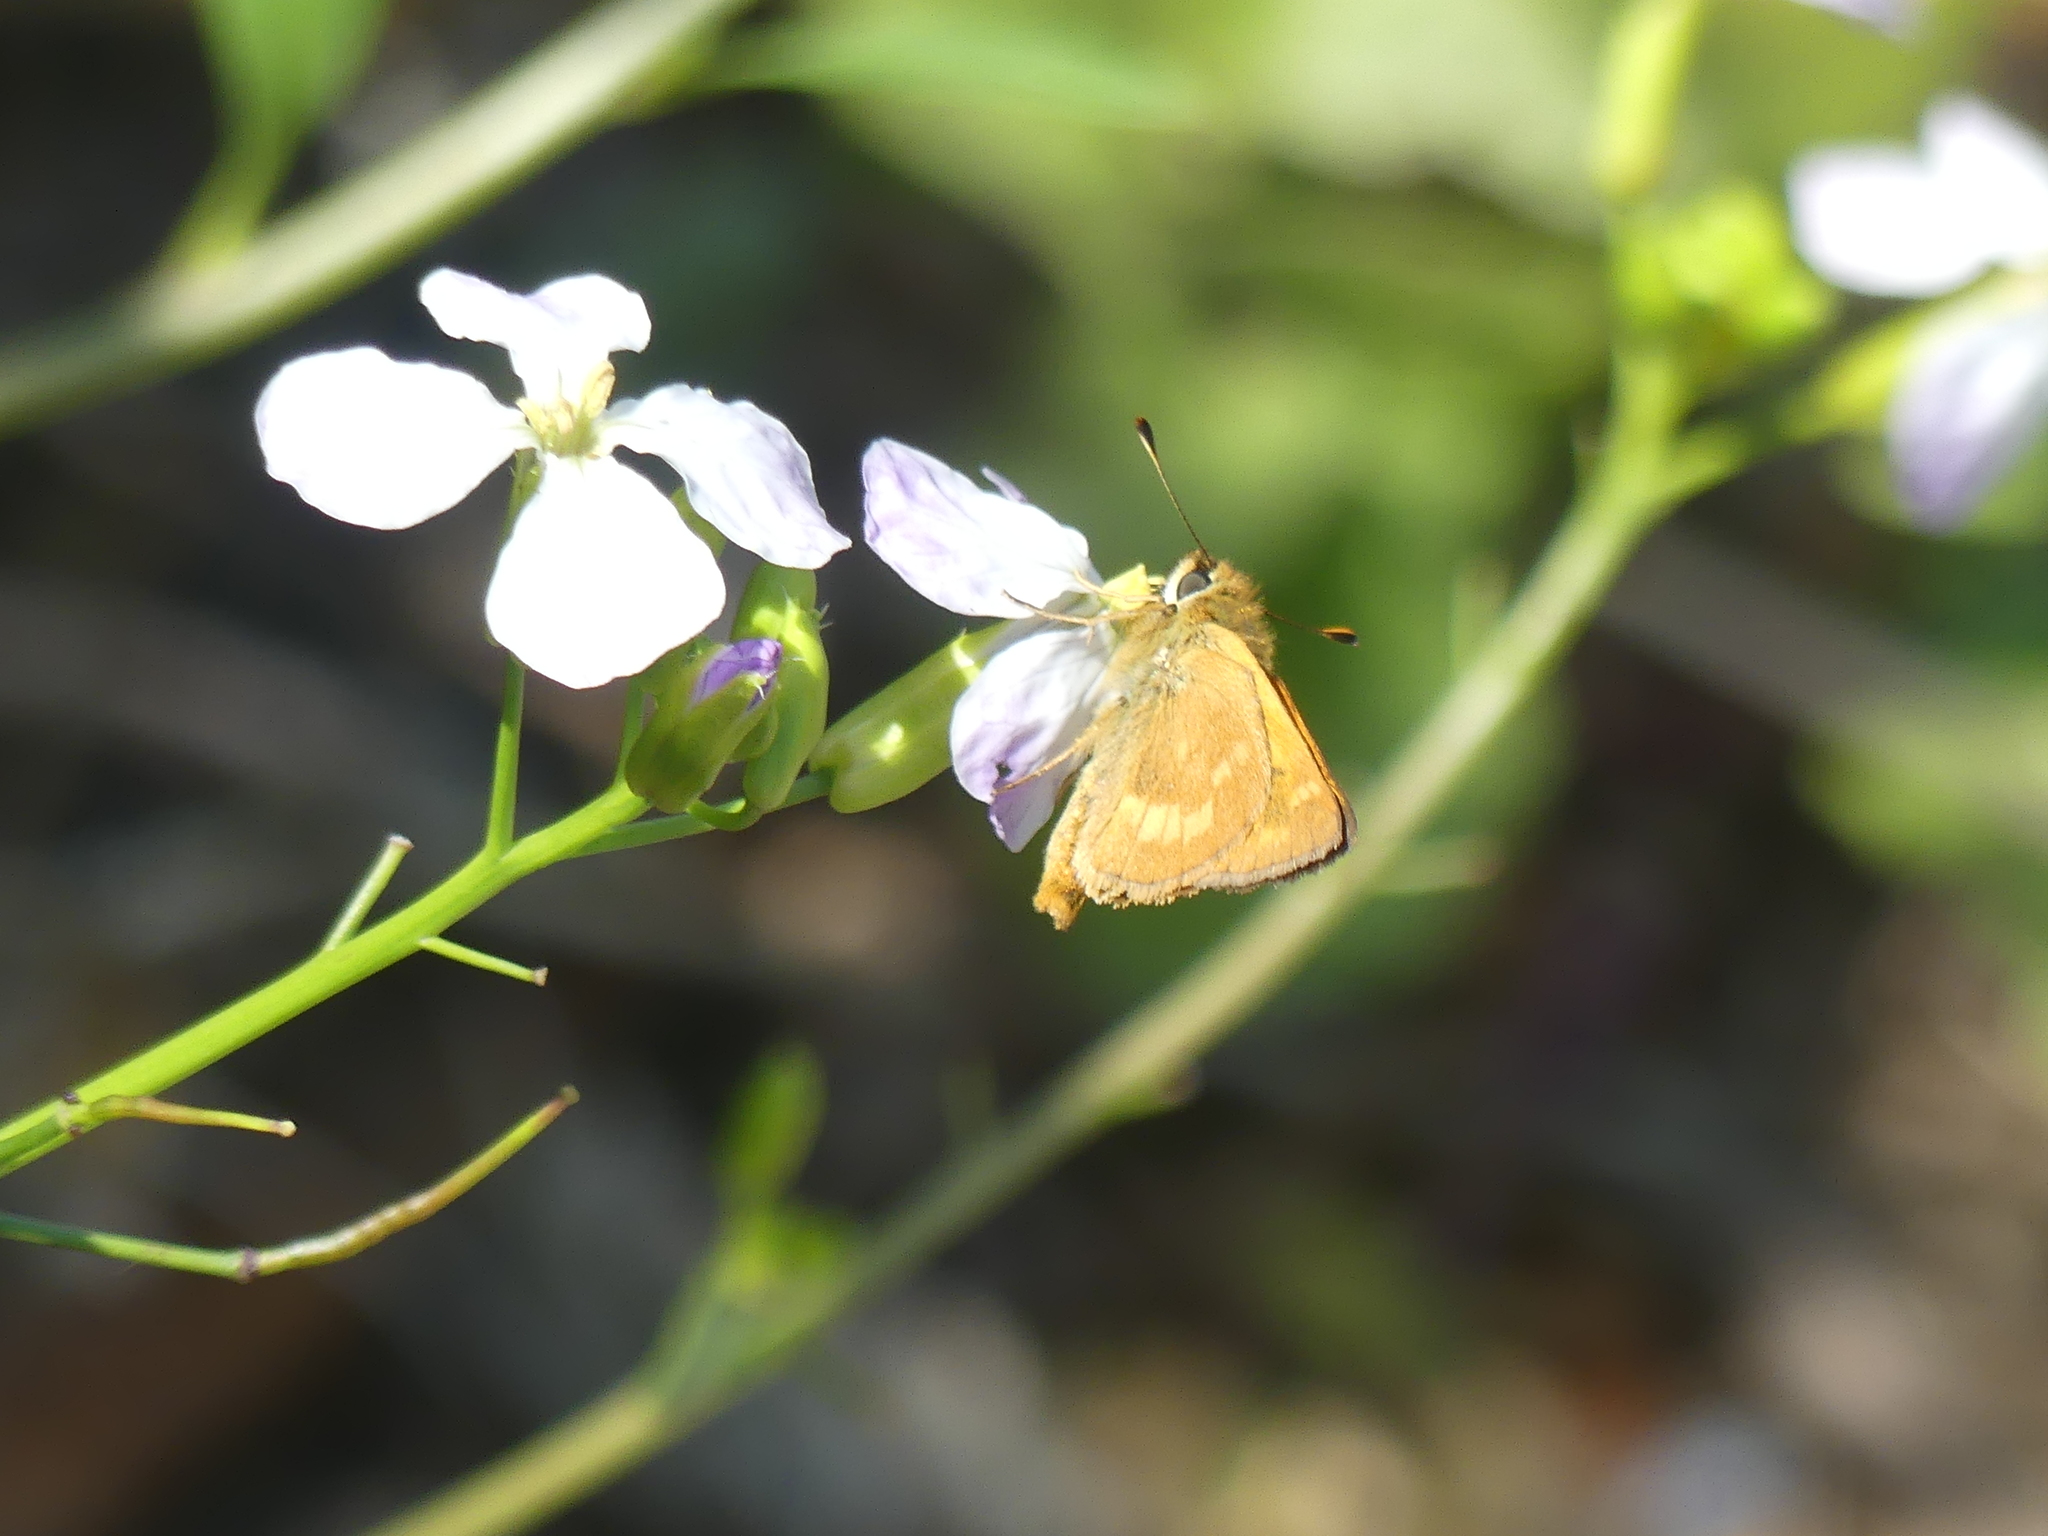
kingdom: Animalia
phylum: Arthropoda
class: Insecta
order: Lepidoptera
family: Hesperiidae
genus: Ochlodes
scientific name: Ochlodes sylvanoides
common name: Woodland skipper
